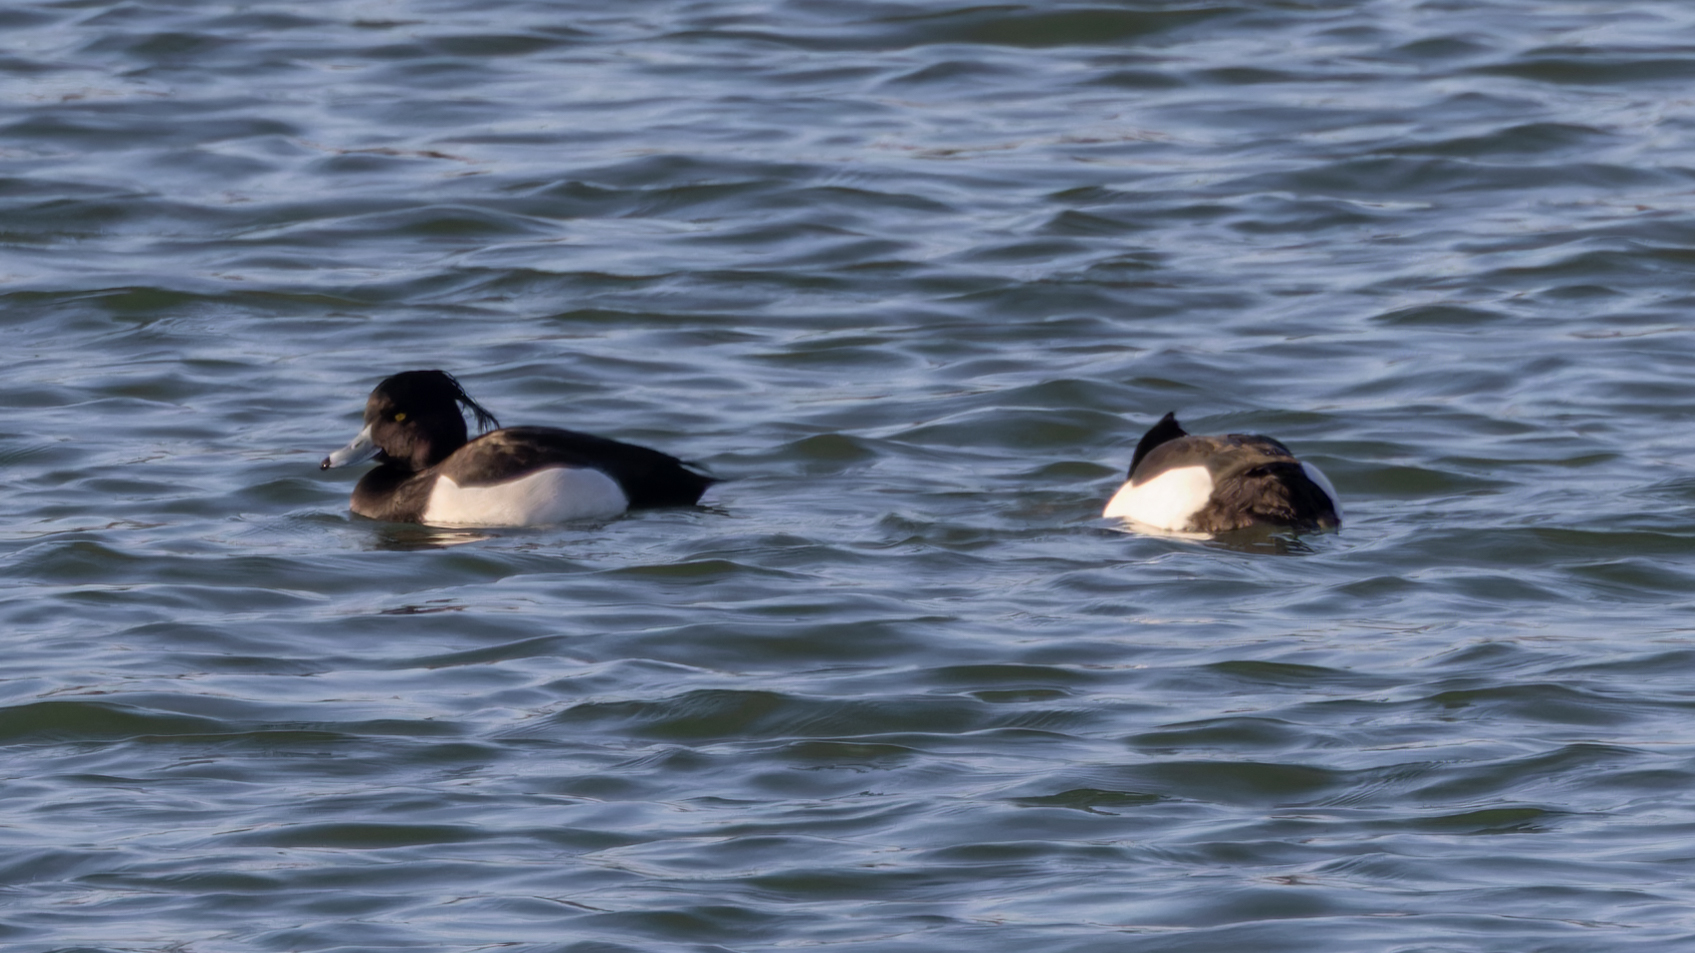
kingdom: Animalia
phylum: Chordata
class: Aves
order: Anseriformes
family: Anatidae
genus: Aythya
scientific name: Aythya fuligula
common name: Tufted duck
